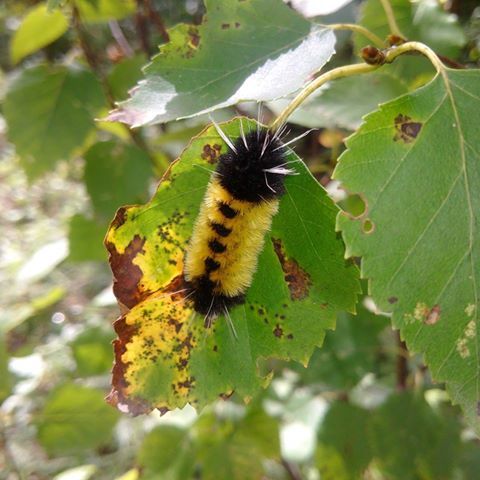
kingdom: Animalia
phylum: Arthropoda
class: Insecta
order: Lepidoptera
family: Erebidae
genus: Lophocampa
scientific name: Lophocampa maculata
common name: Spotted tussock moth
